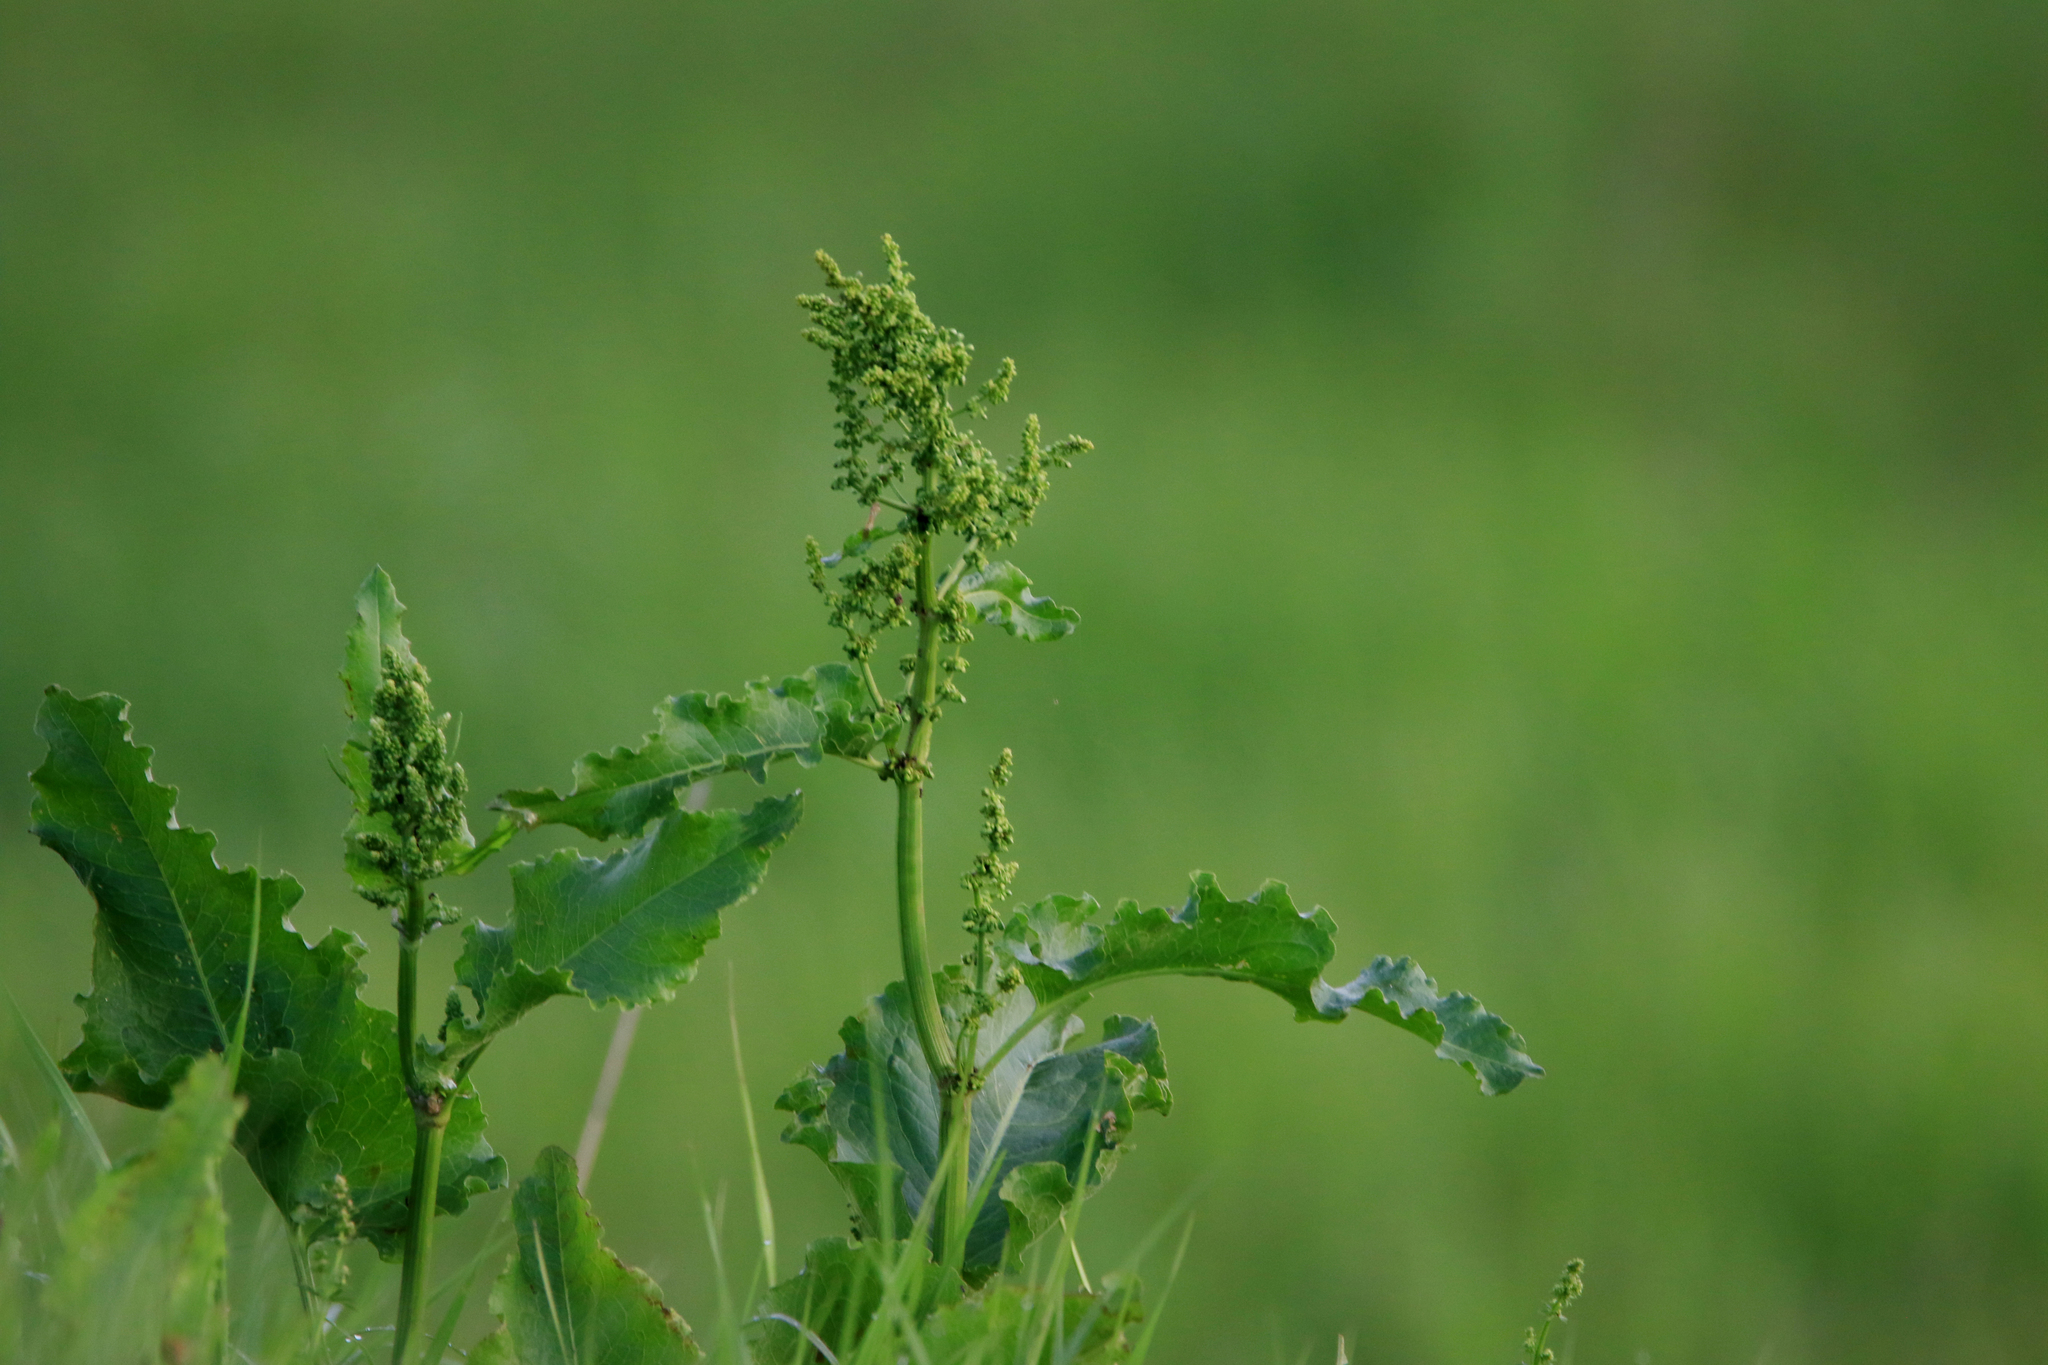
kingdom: Plantae
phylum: Tracheophyta
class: Magnoliopsida
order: Caryophyllales
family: Polygonaceae
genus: Rumex
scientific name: Rumex confertus
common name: Russian dock
